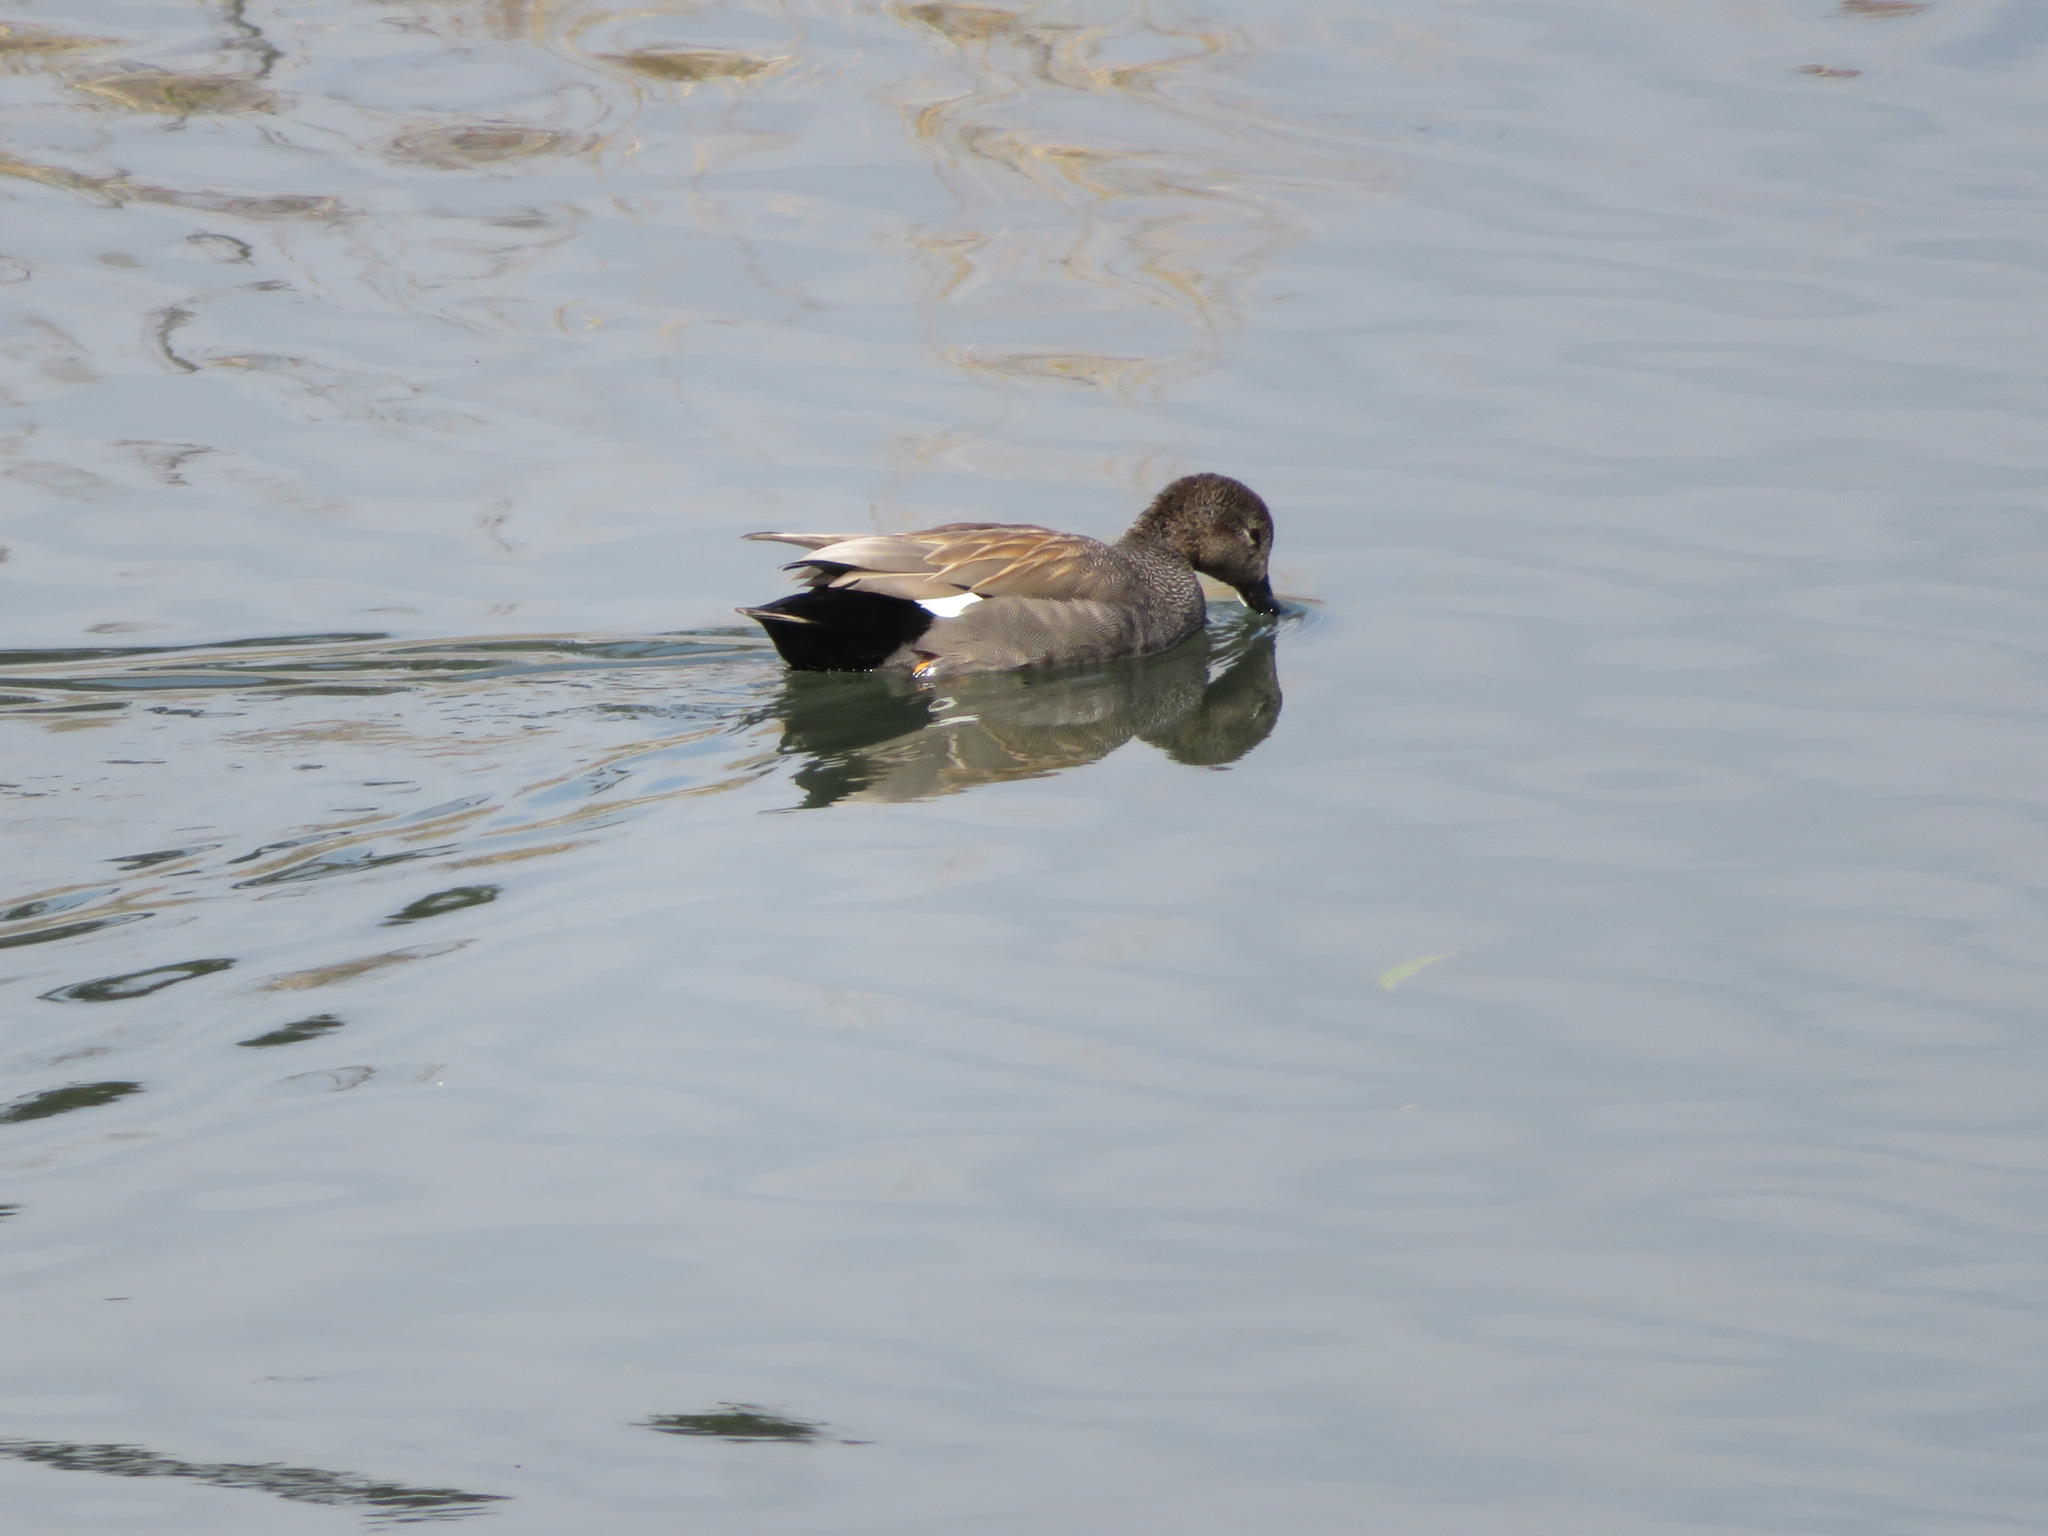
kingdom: Animalia
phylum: Chordata
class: Aves
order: Anseriformes
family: Anatidae
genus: Mareca
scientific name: Mareca strepera
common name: Gadwall
